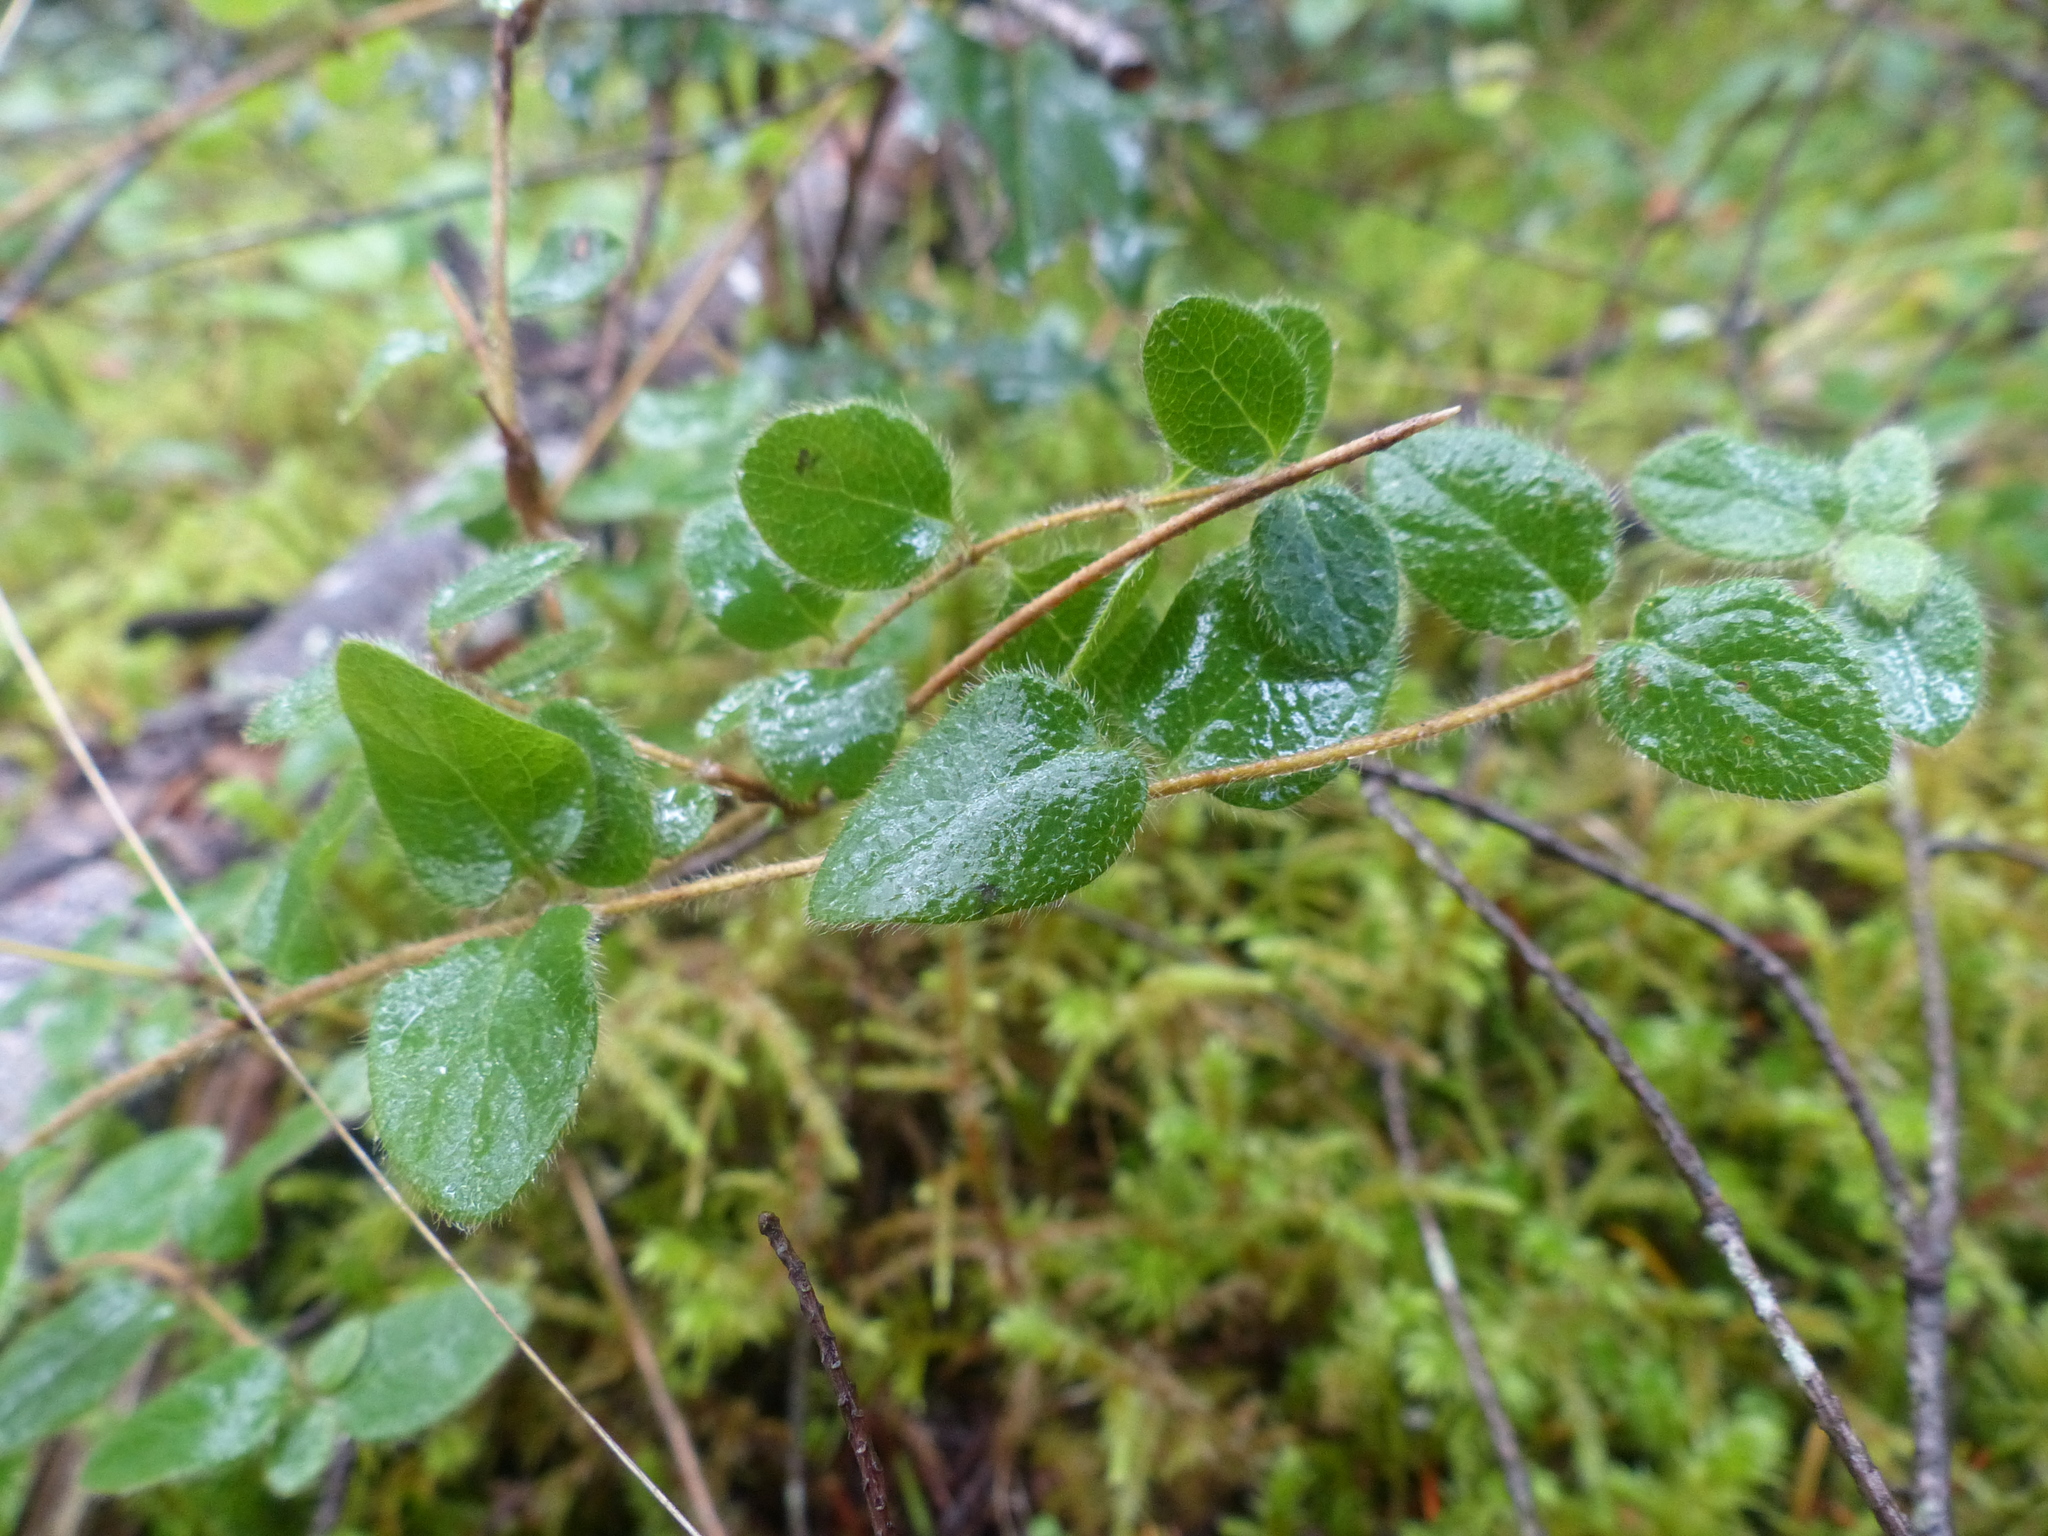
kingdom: Plantae
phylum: Tracheophyta
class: Magnoliopsida
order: Dipsacales
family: Caprifoliaceae
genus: Lonicera
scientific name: Lonicera hispidula
